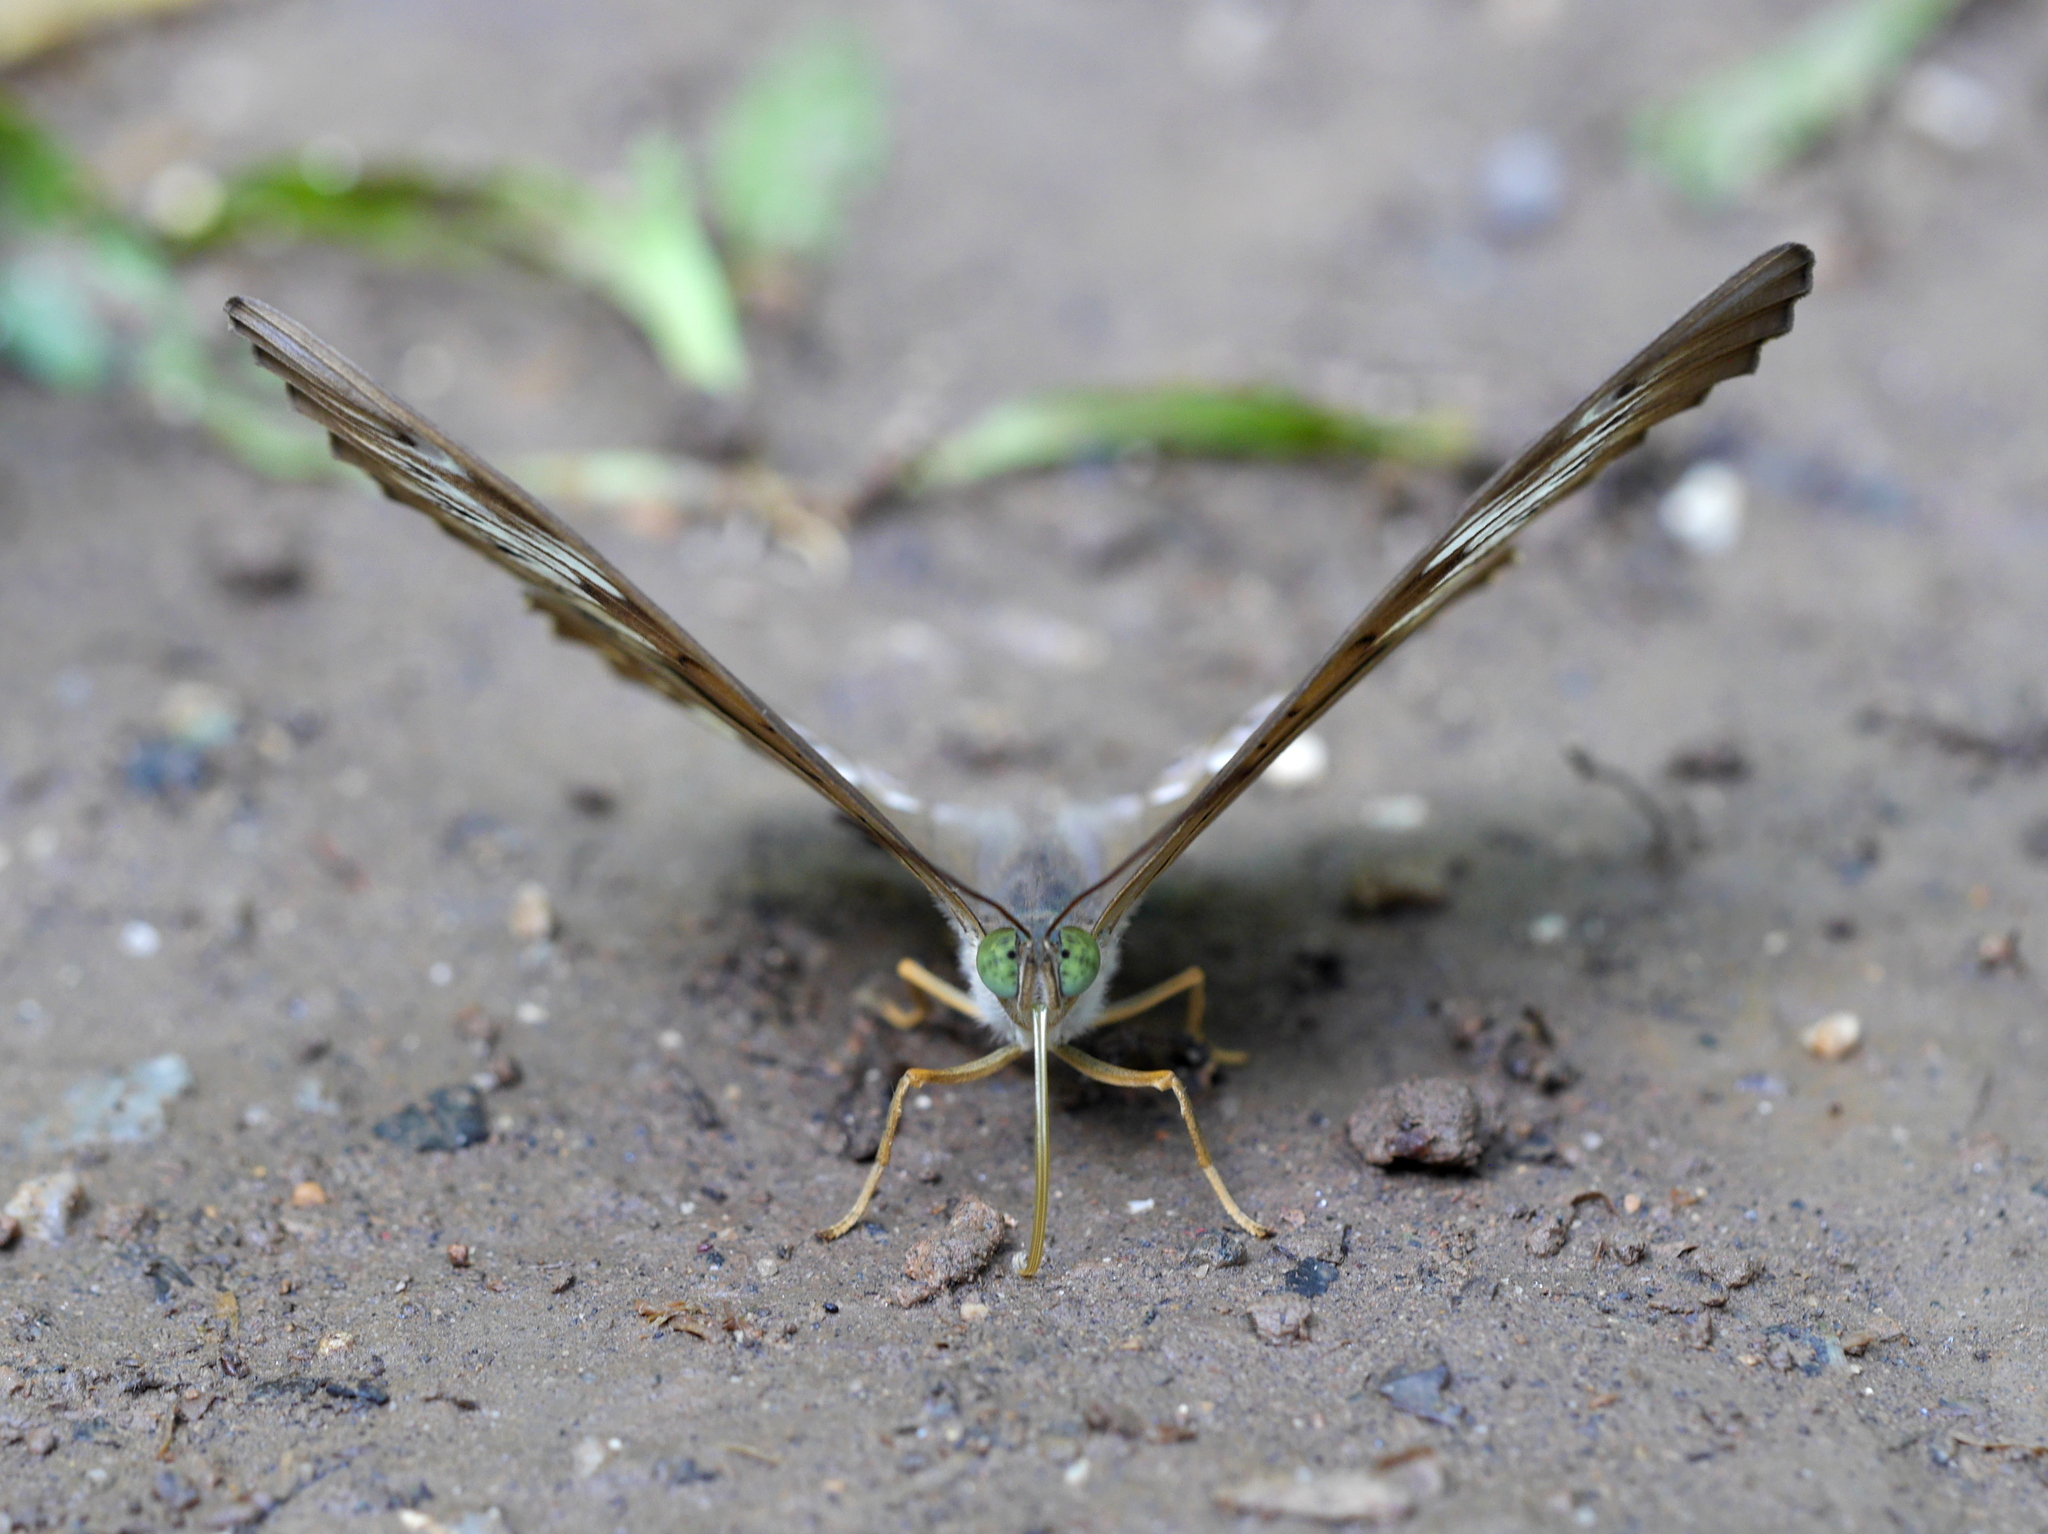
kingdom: Animalia
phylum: Arthropoda
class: Insecta
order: Lepidoptera
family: Nymphalidae
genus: Tanaecia
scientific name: Tanaecia pelea
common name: Malay viscount
